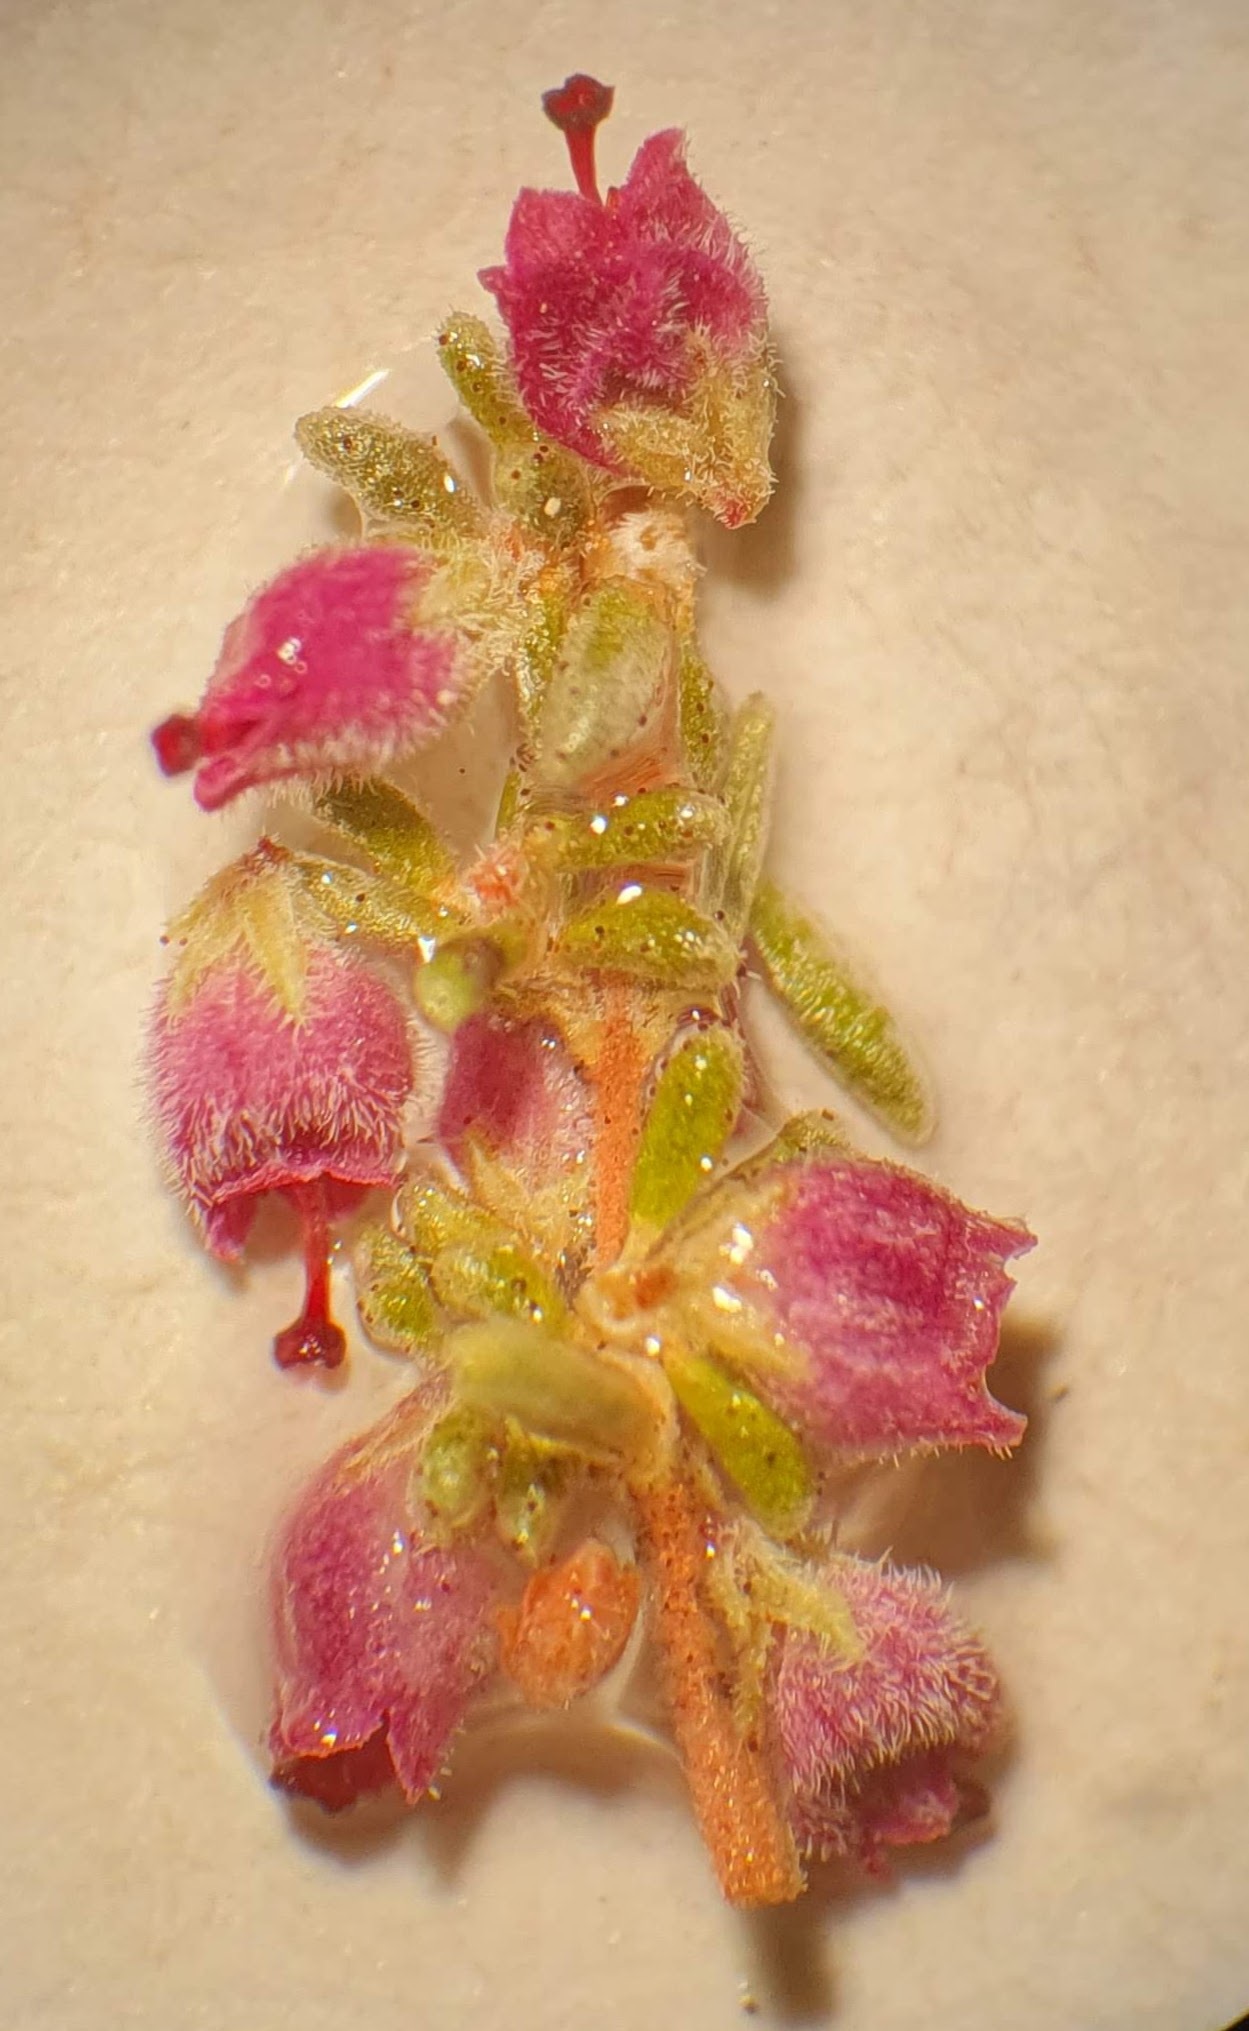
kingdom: Plantae
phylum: Tracheophyta
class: Magnoliopsida
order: Ericales
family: Ericaceae
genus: Erica
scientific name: Erica puberuliflora
